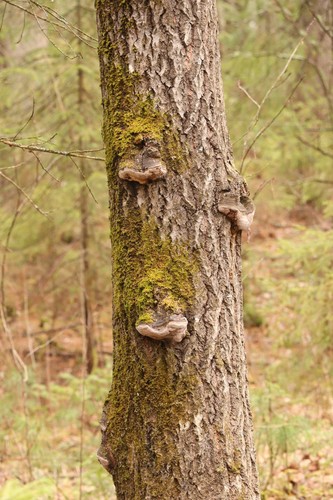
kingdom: Fungi
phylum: Basidiomycota
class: Agaricomycetes
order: Hymenochaetales
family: Hymenochaetaceae
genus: Phellinus
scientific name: Phellinus tremulae
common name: Aspen bracket
